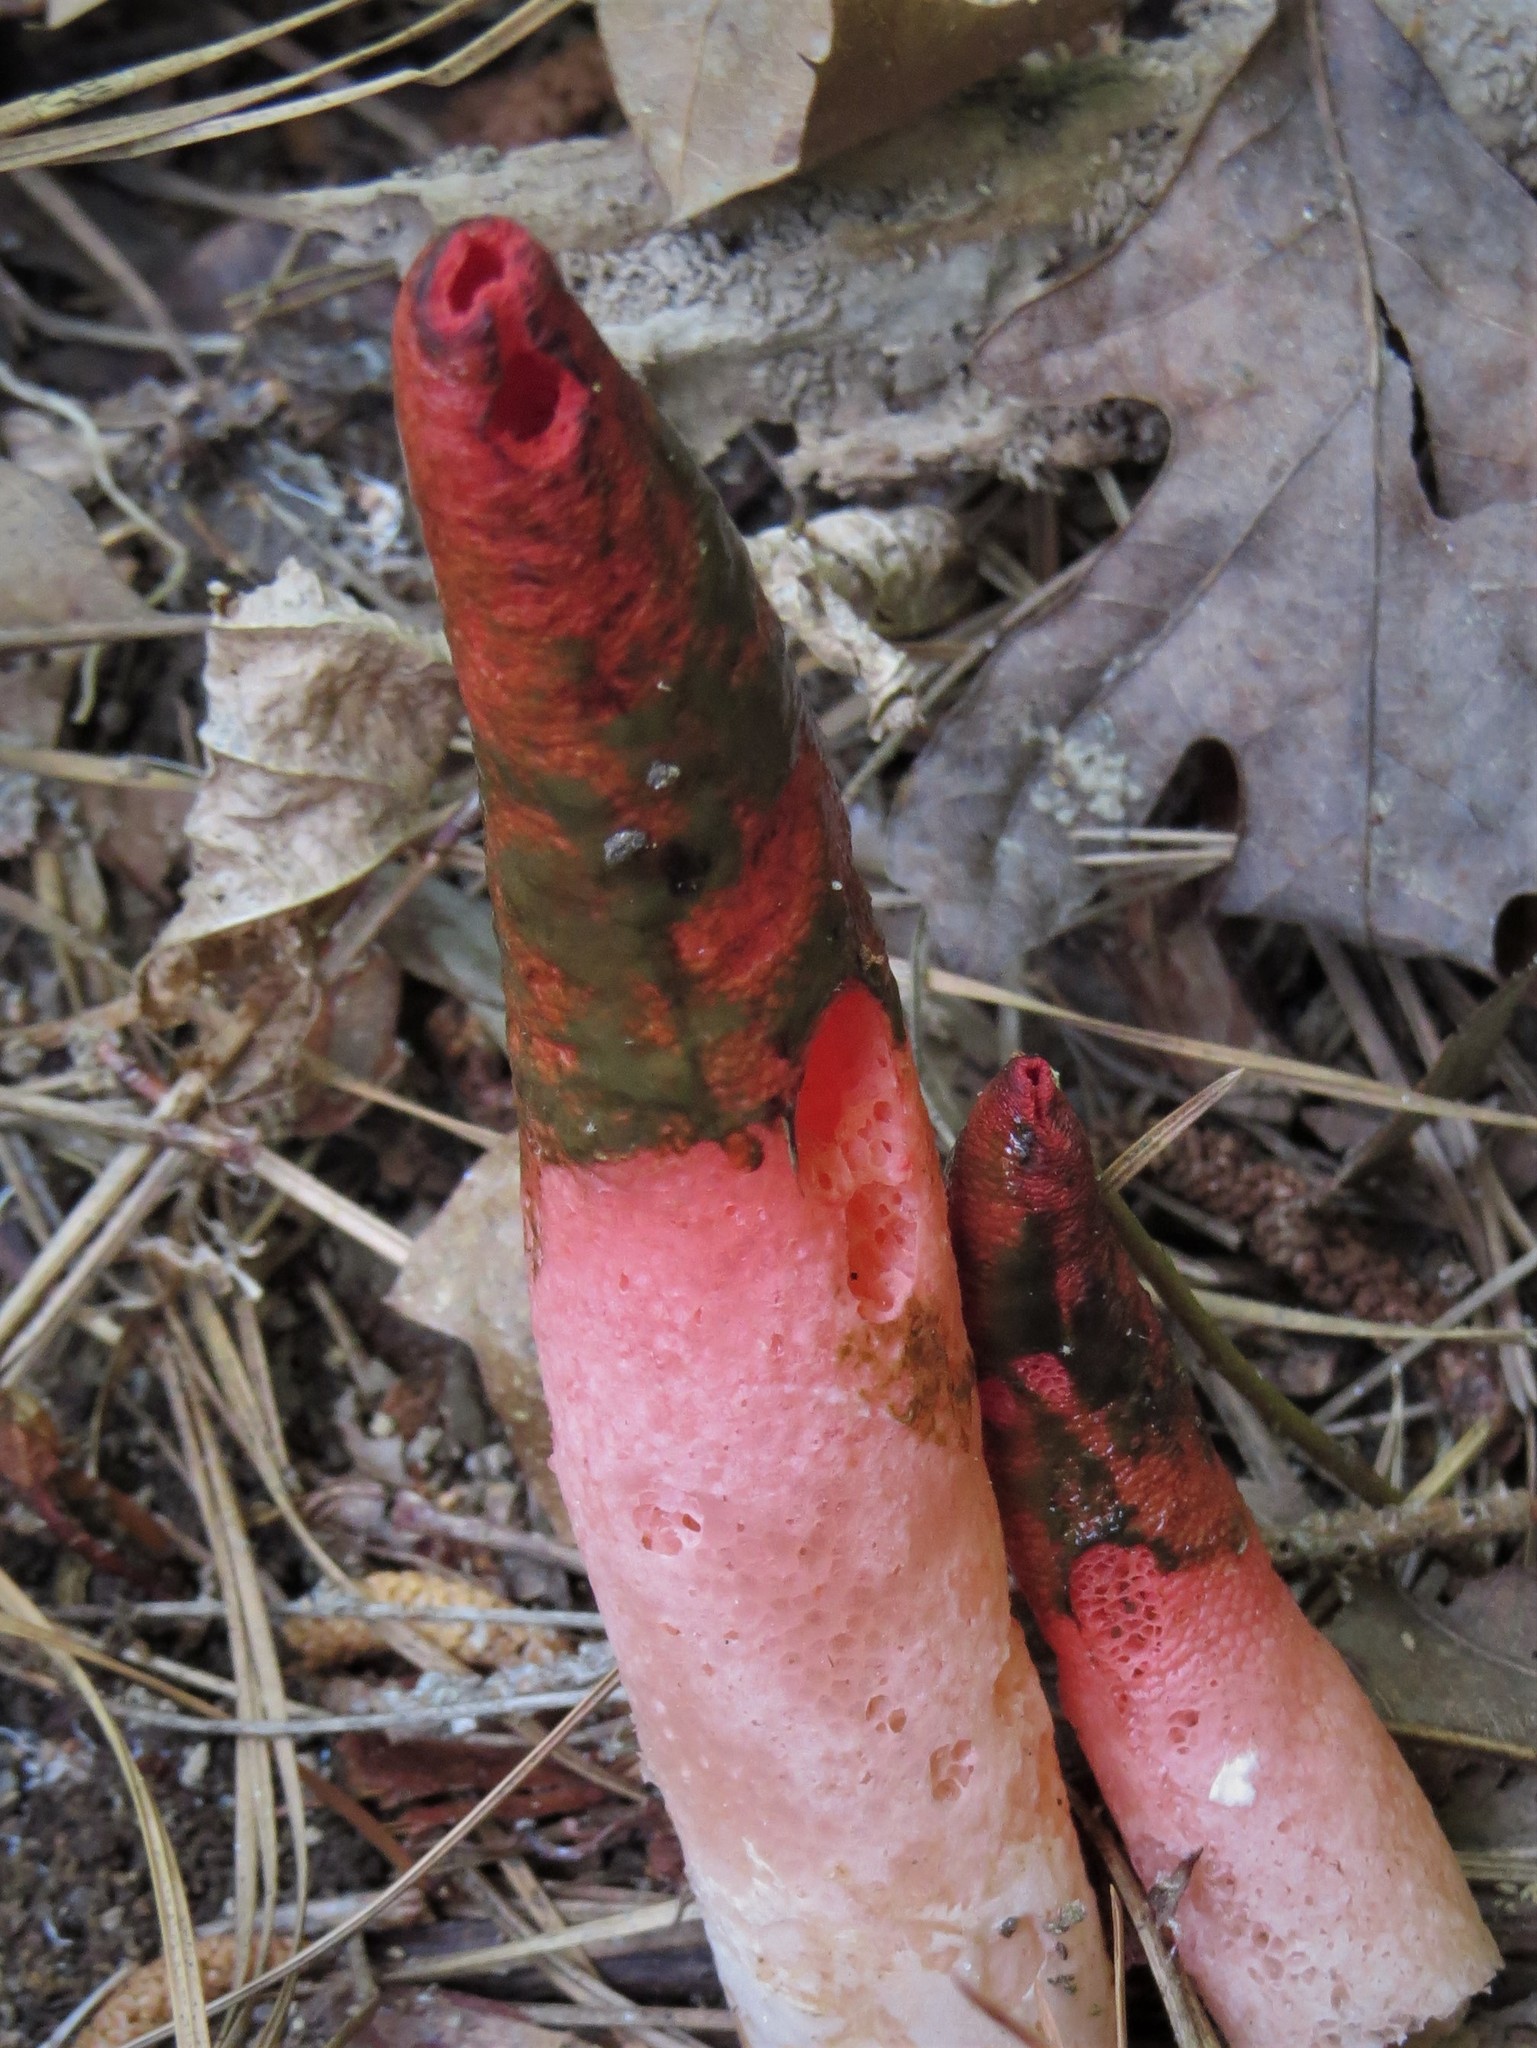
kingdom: Fungi
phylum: Basidiomycota
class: Agaricomycetes
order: Phallales
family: Phallaceae
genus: Mutinus
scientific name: Mutinus elegans
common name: Devil's dipstick
